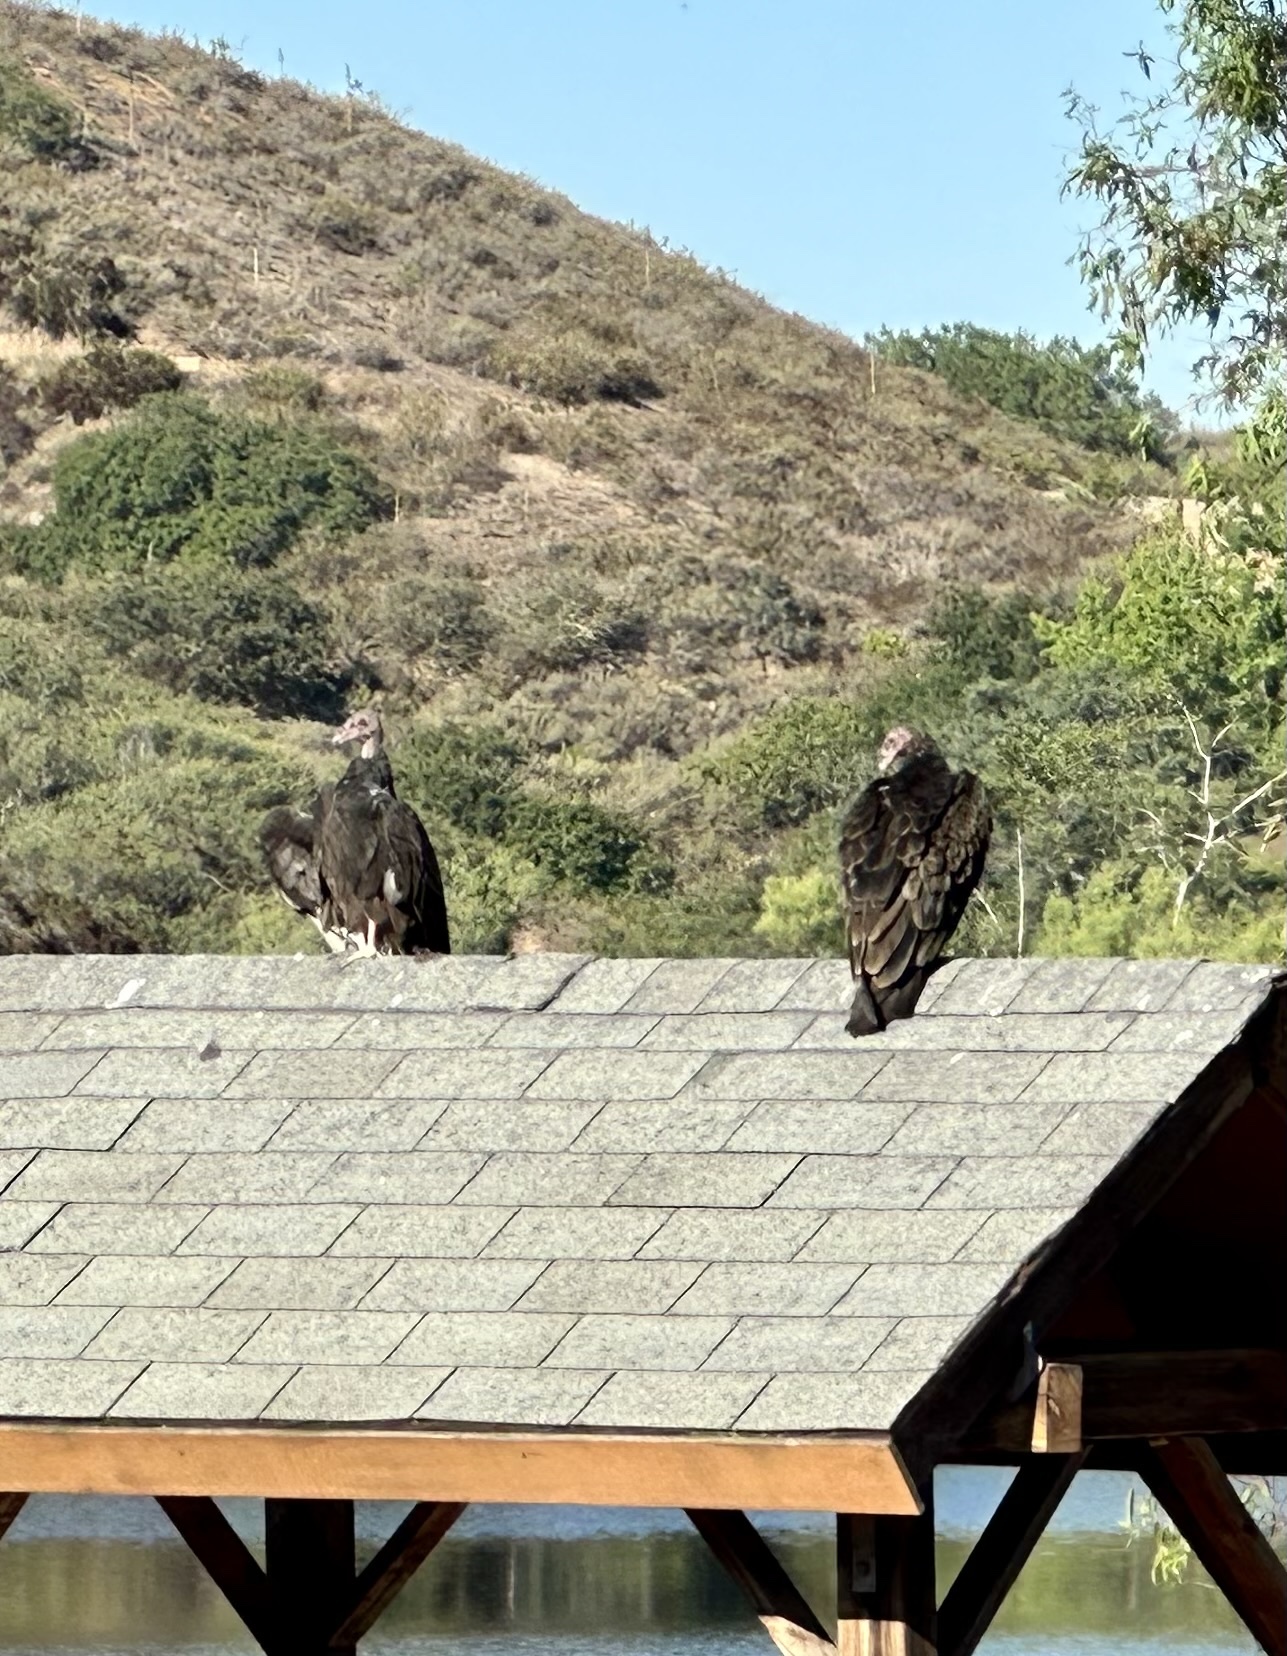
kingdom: Animalia
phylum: Chordata
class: Aves
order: Accipitriformes
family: Cathartidae
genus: Cathartes
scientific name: Cathartes aura
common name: Turkey vulture
